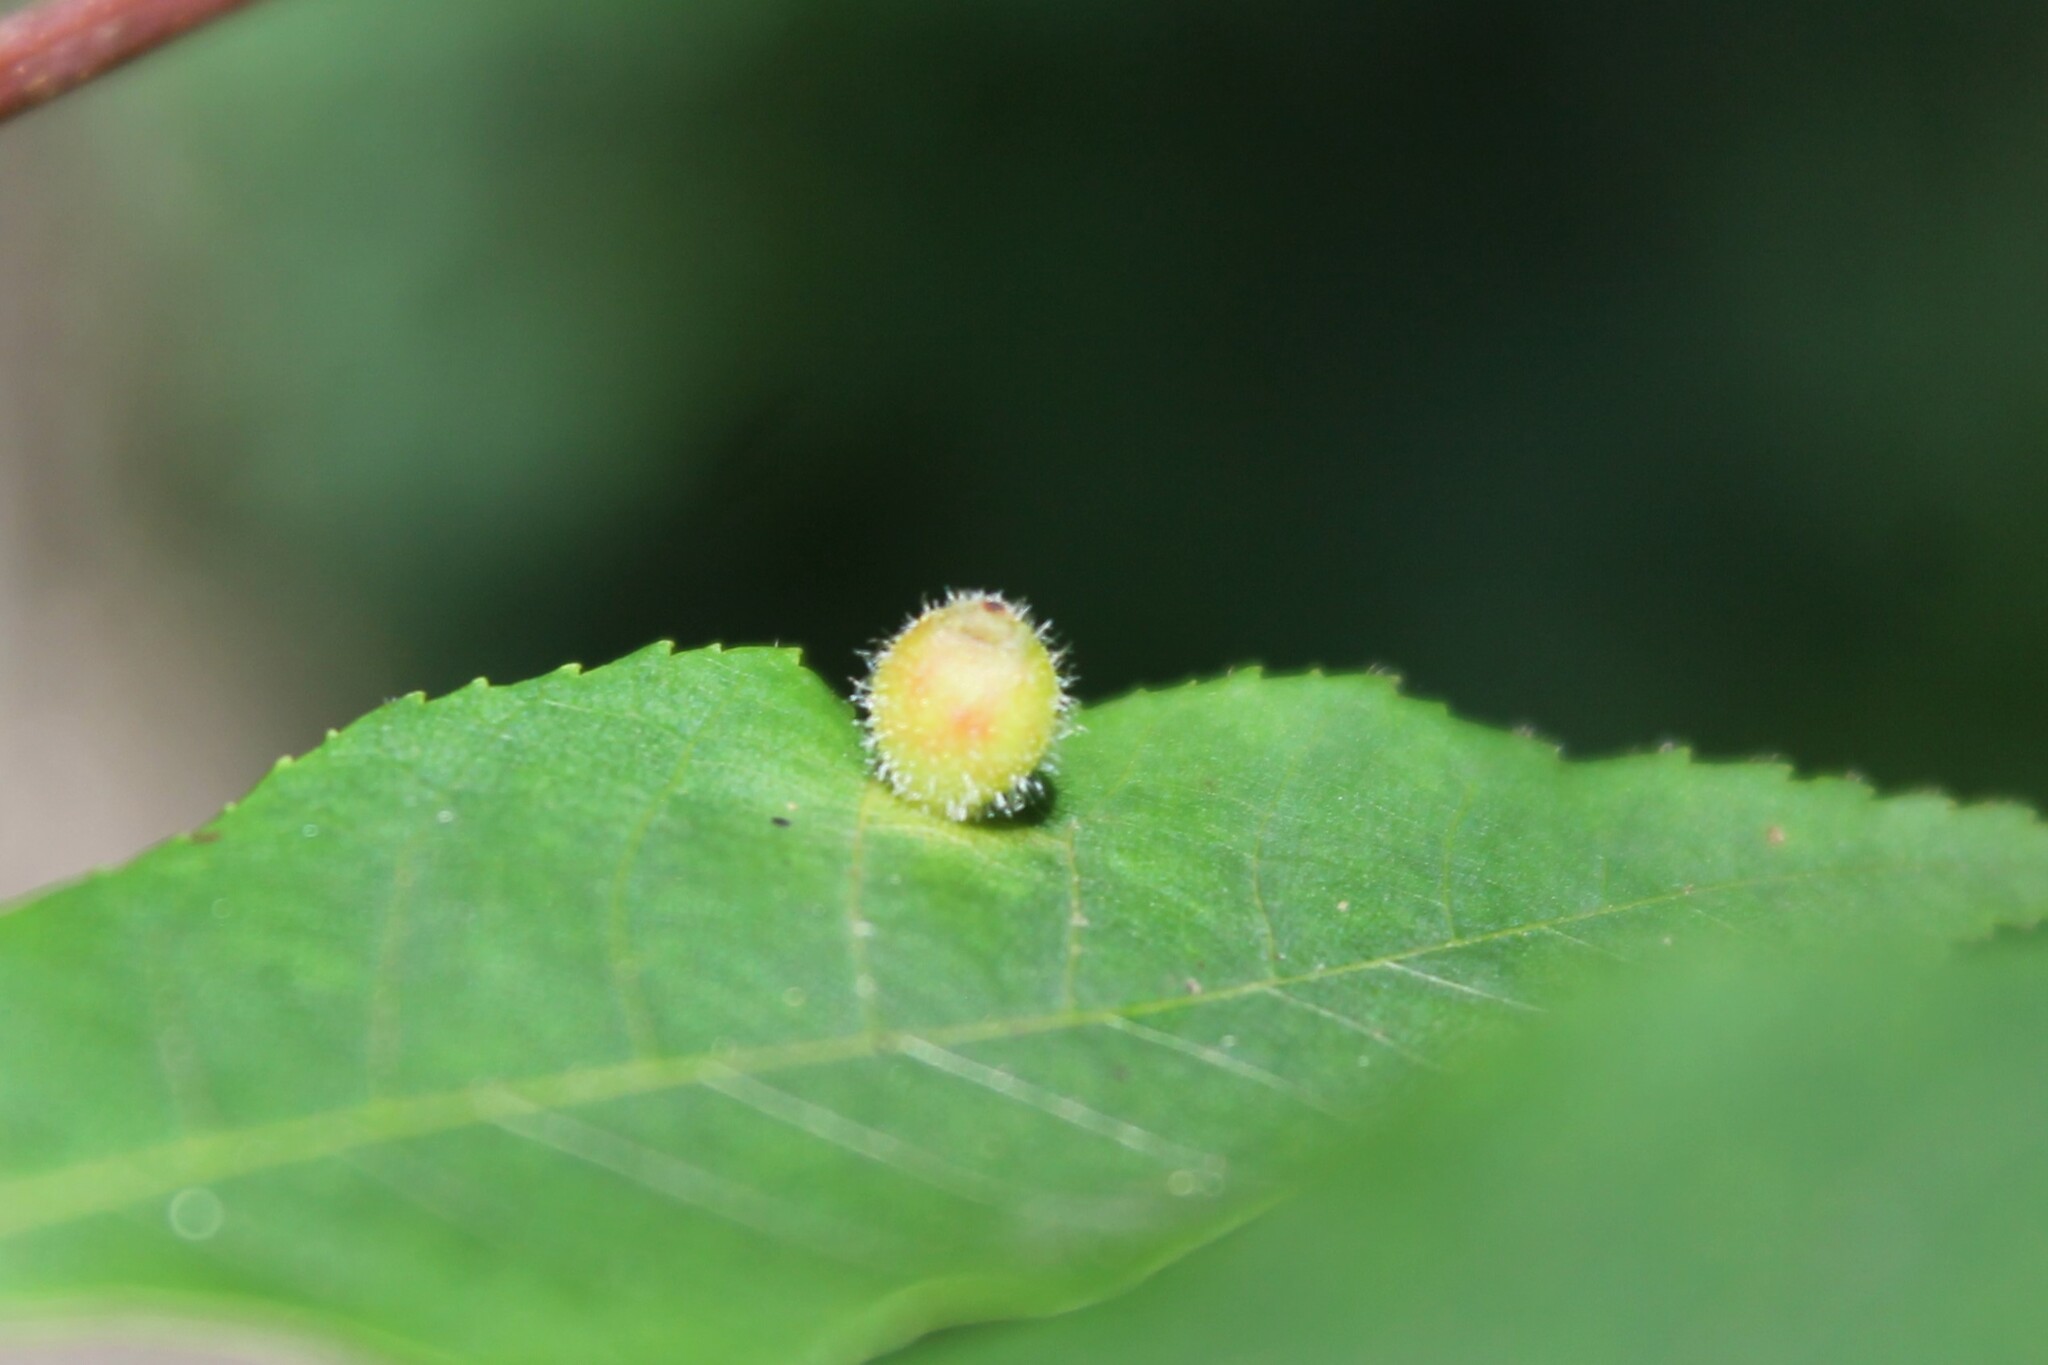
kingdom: Animalia
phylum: Arthropoda
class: Insecta
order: Diptera
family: Cecidomyiidae
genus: Caryomyia
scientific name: Caryomyia viscidolium
